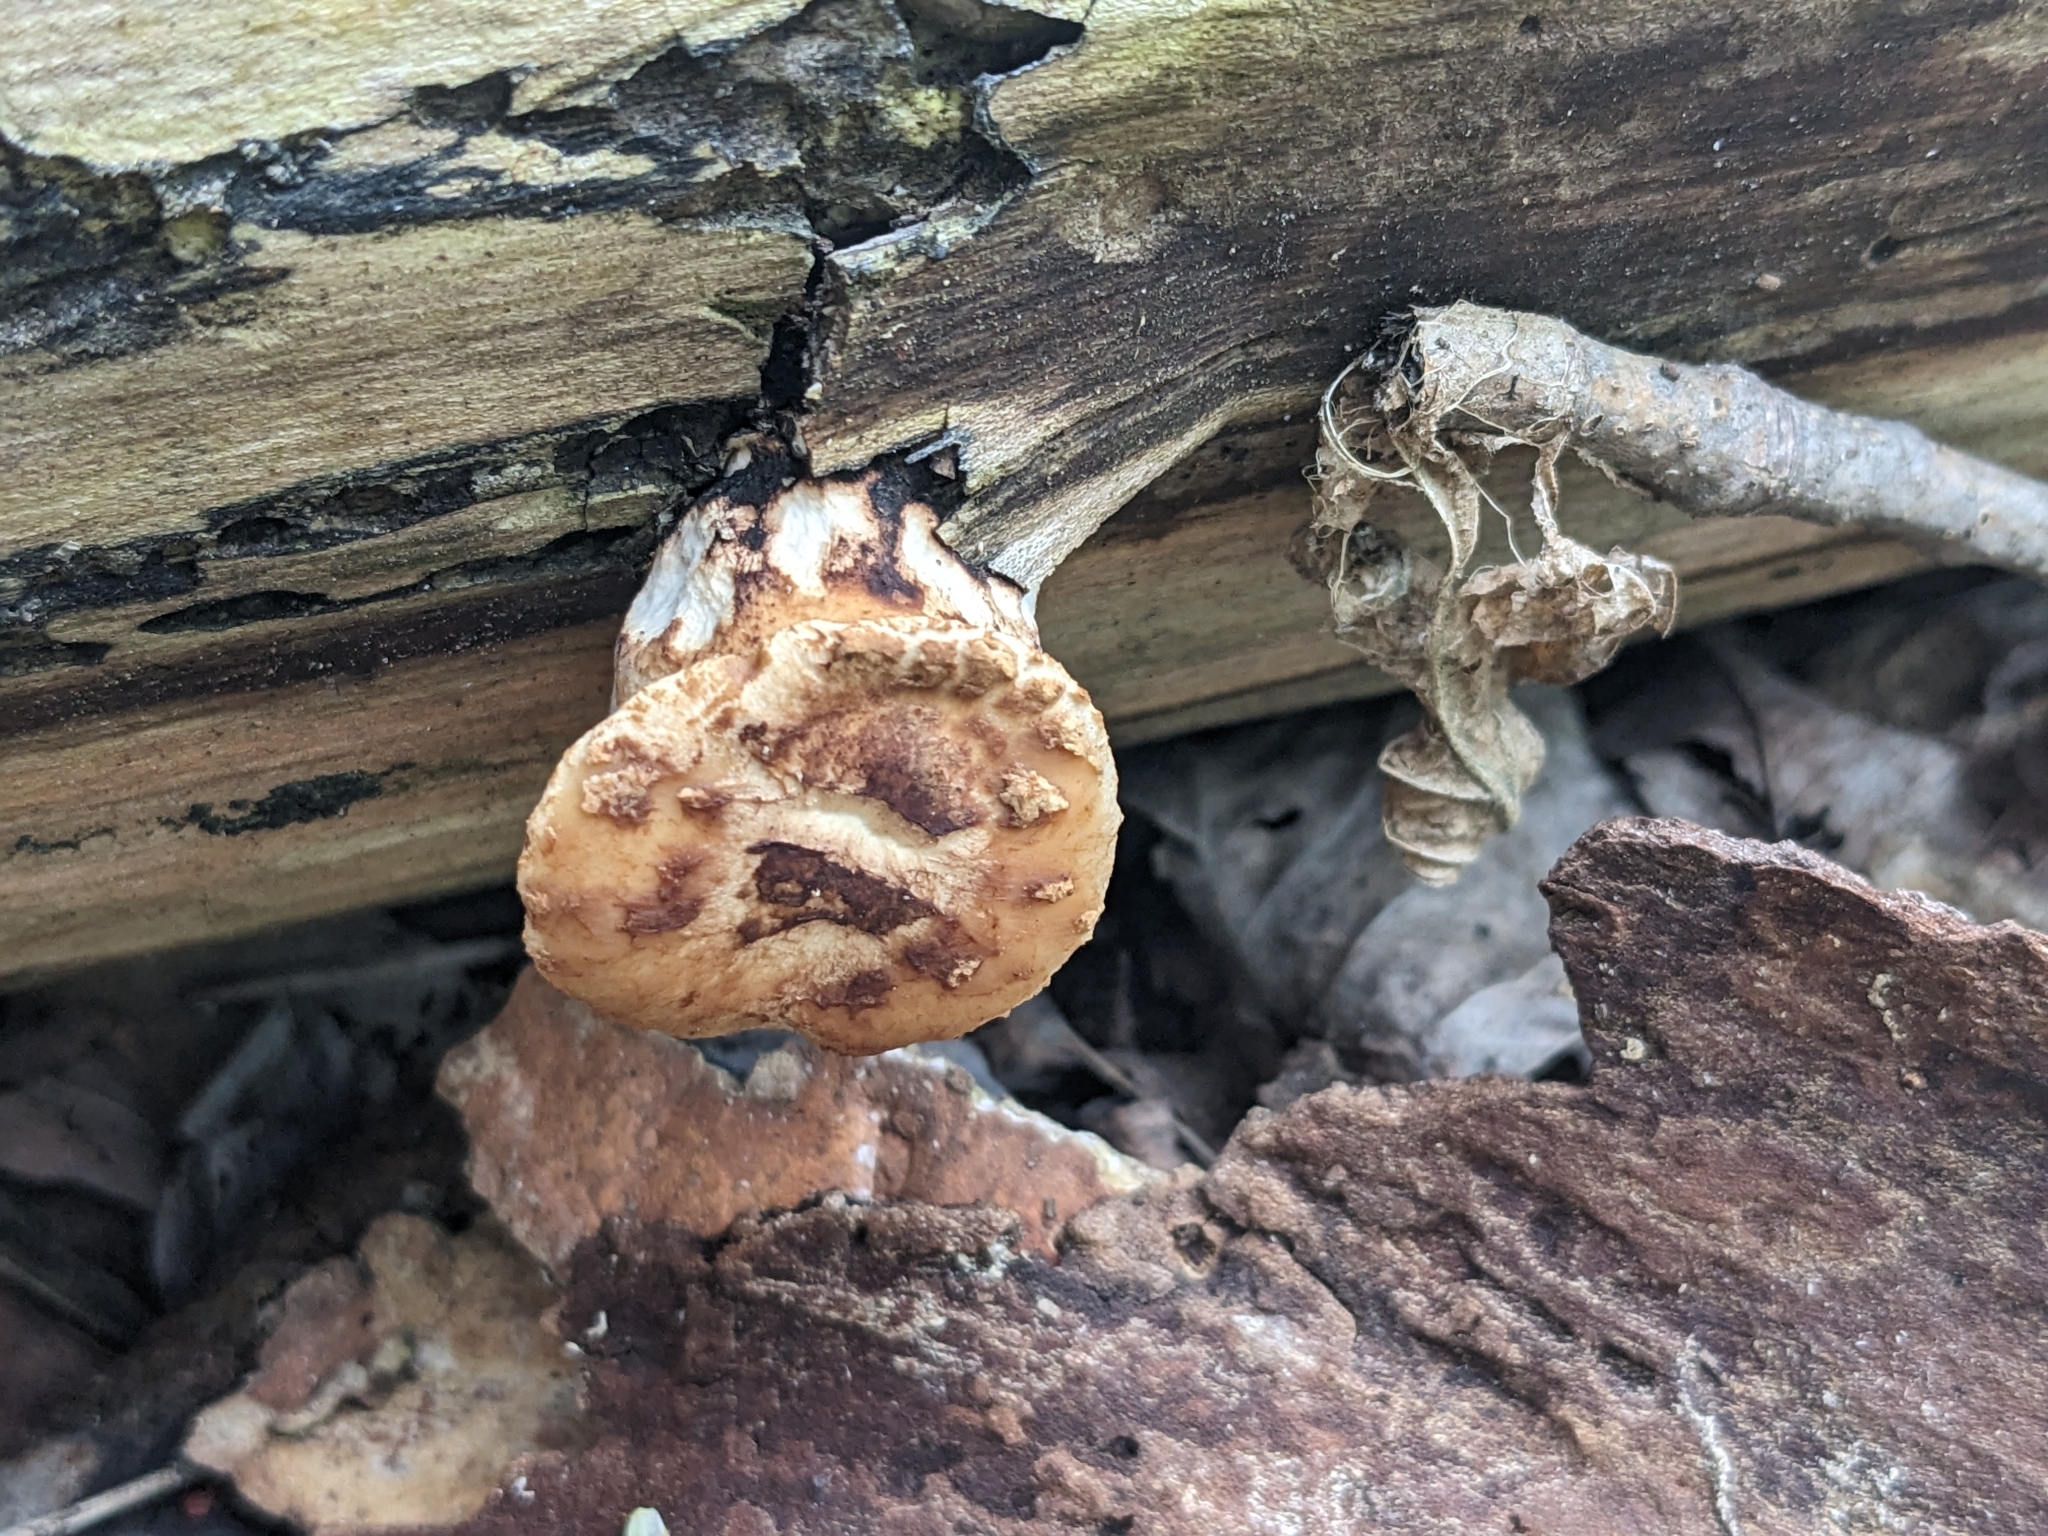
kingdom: Fungi
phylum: Basidiomycota
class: Agaricomycetes
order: Polyporales
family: Polyporaceae
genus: Cerioporus
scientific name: Cerioporus squamosus
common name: Dryad's saddle
